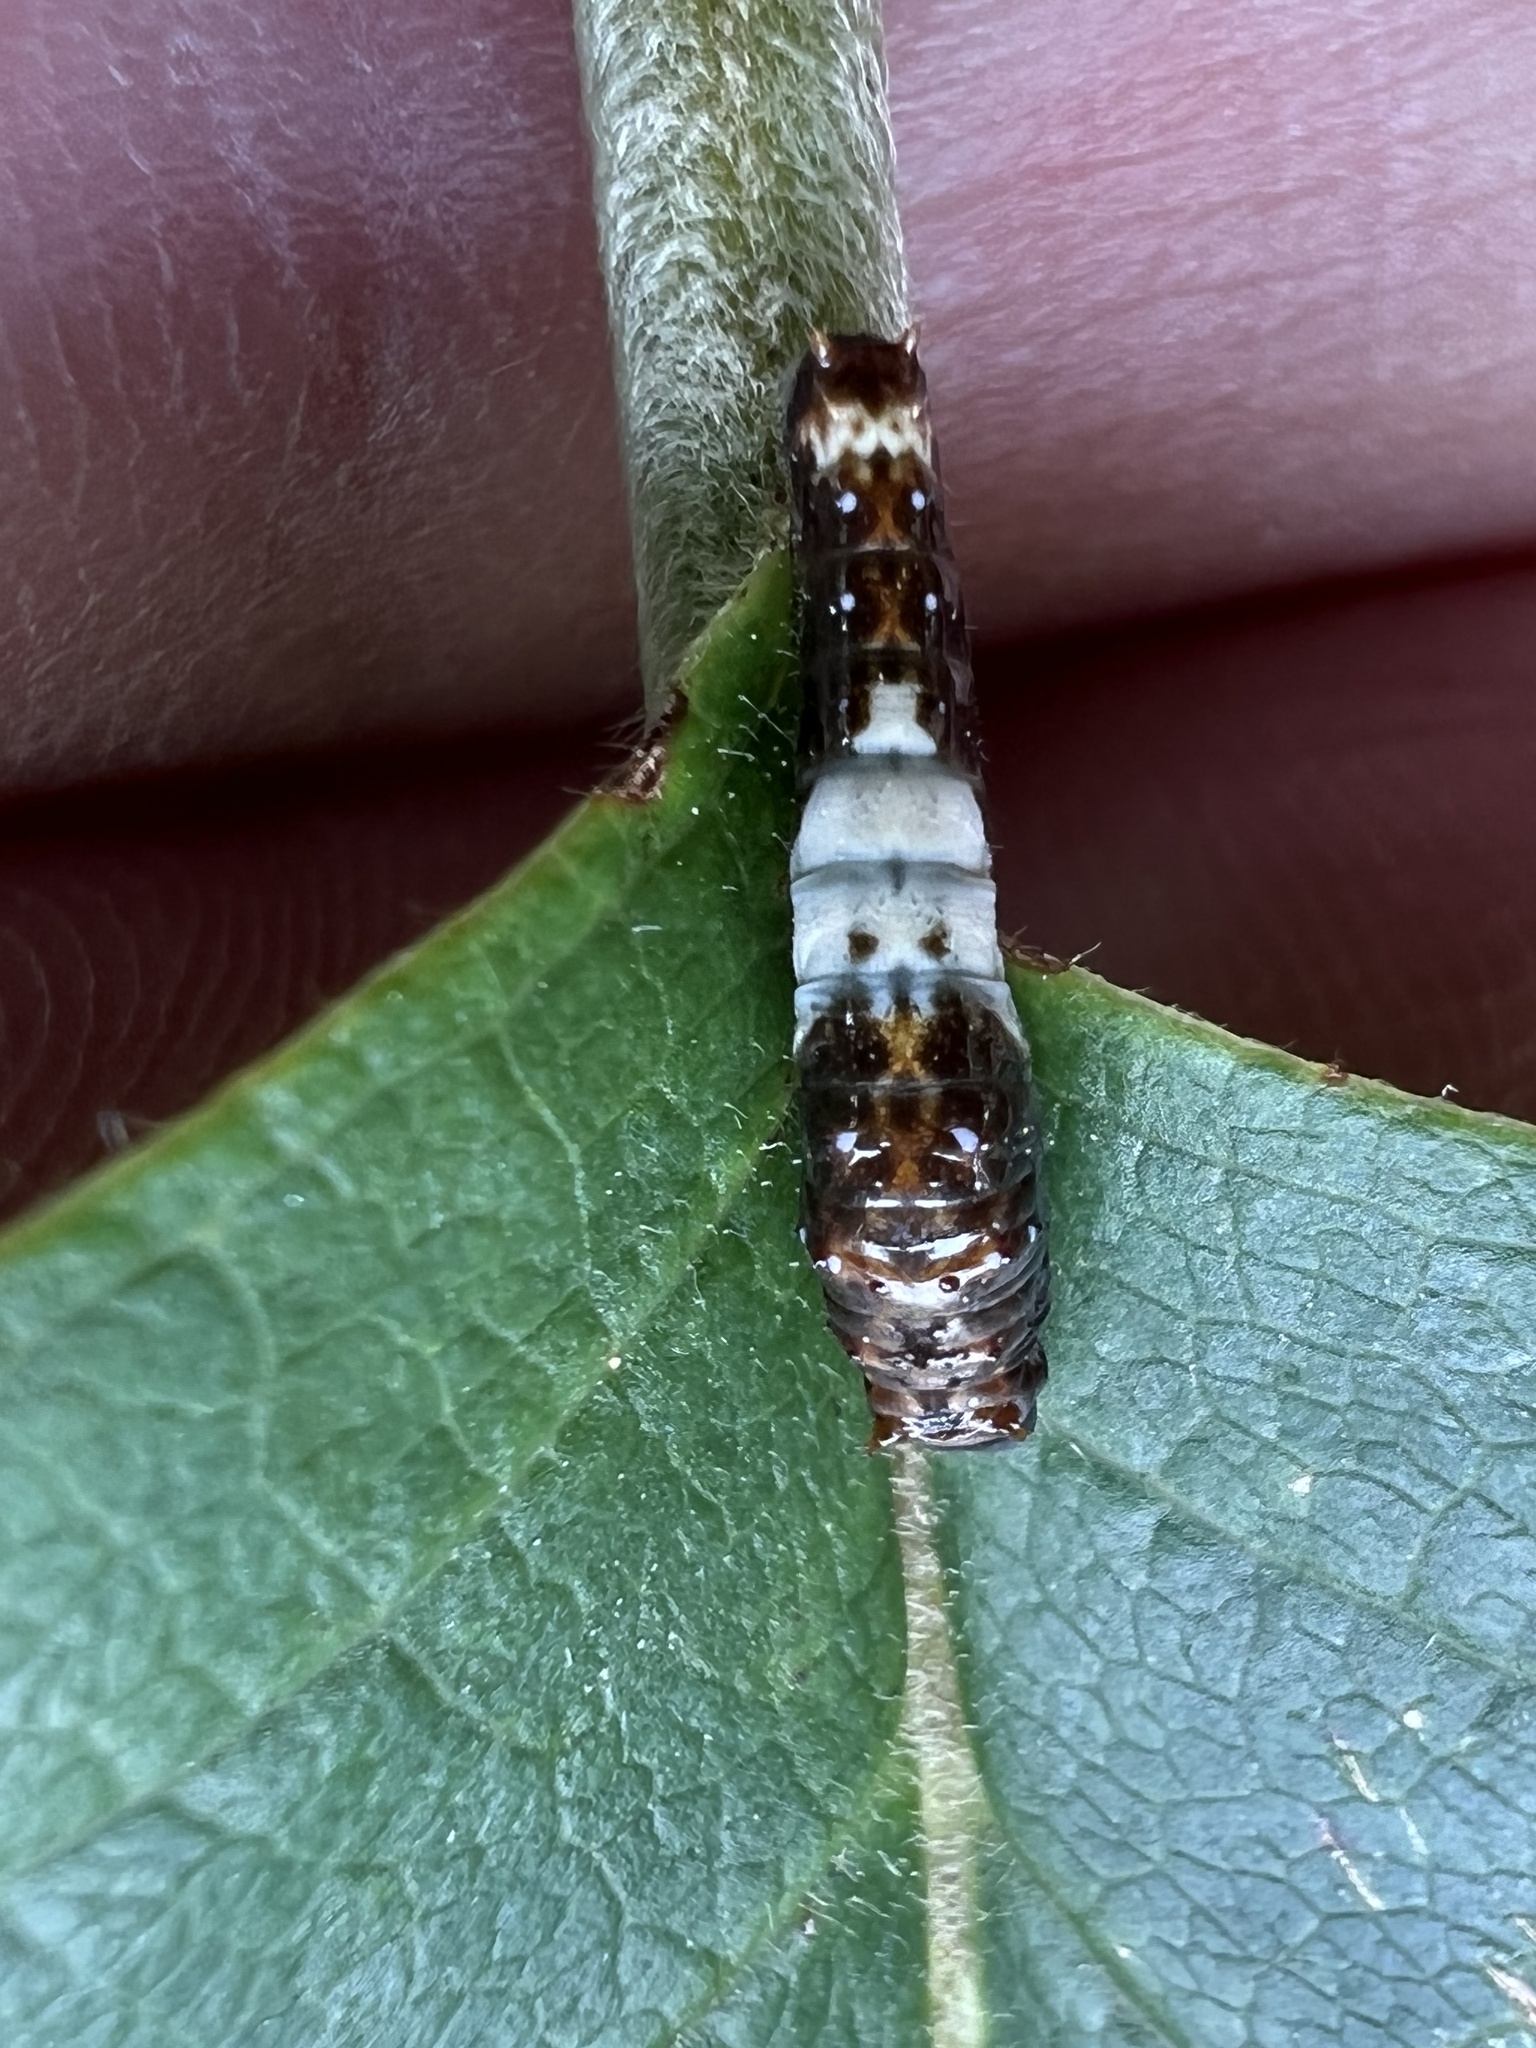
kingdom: Animalia
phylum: Arthropoda
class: Insecta
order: Lepidoptera
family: Papilionidae
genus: Papilio
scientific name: Papilio glaucus
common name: Tiger swallowtail
